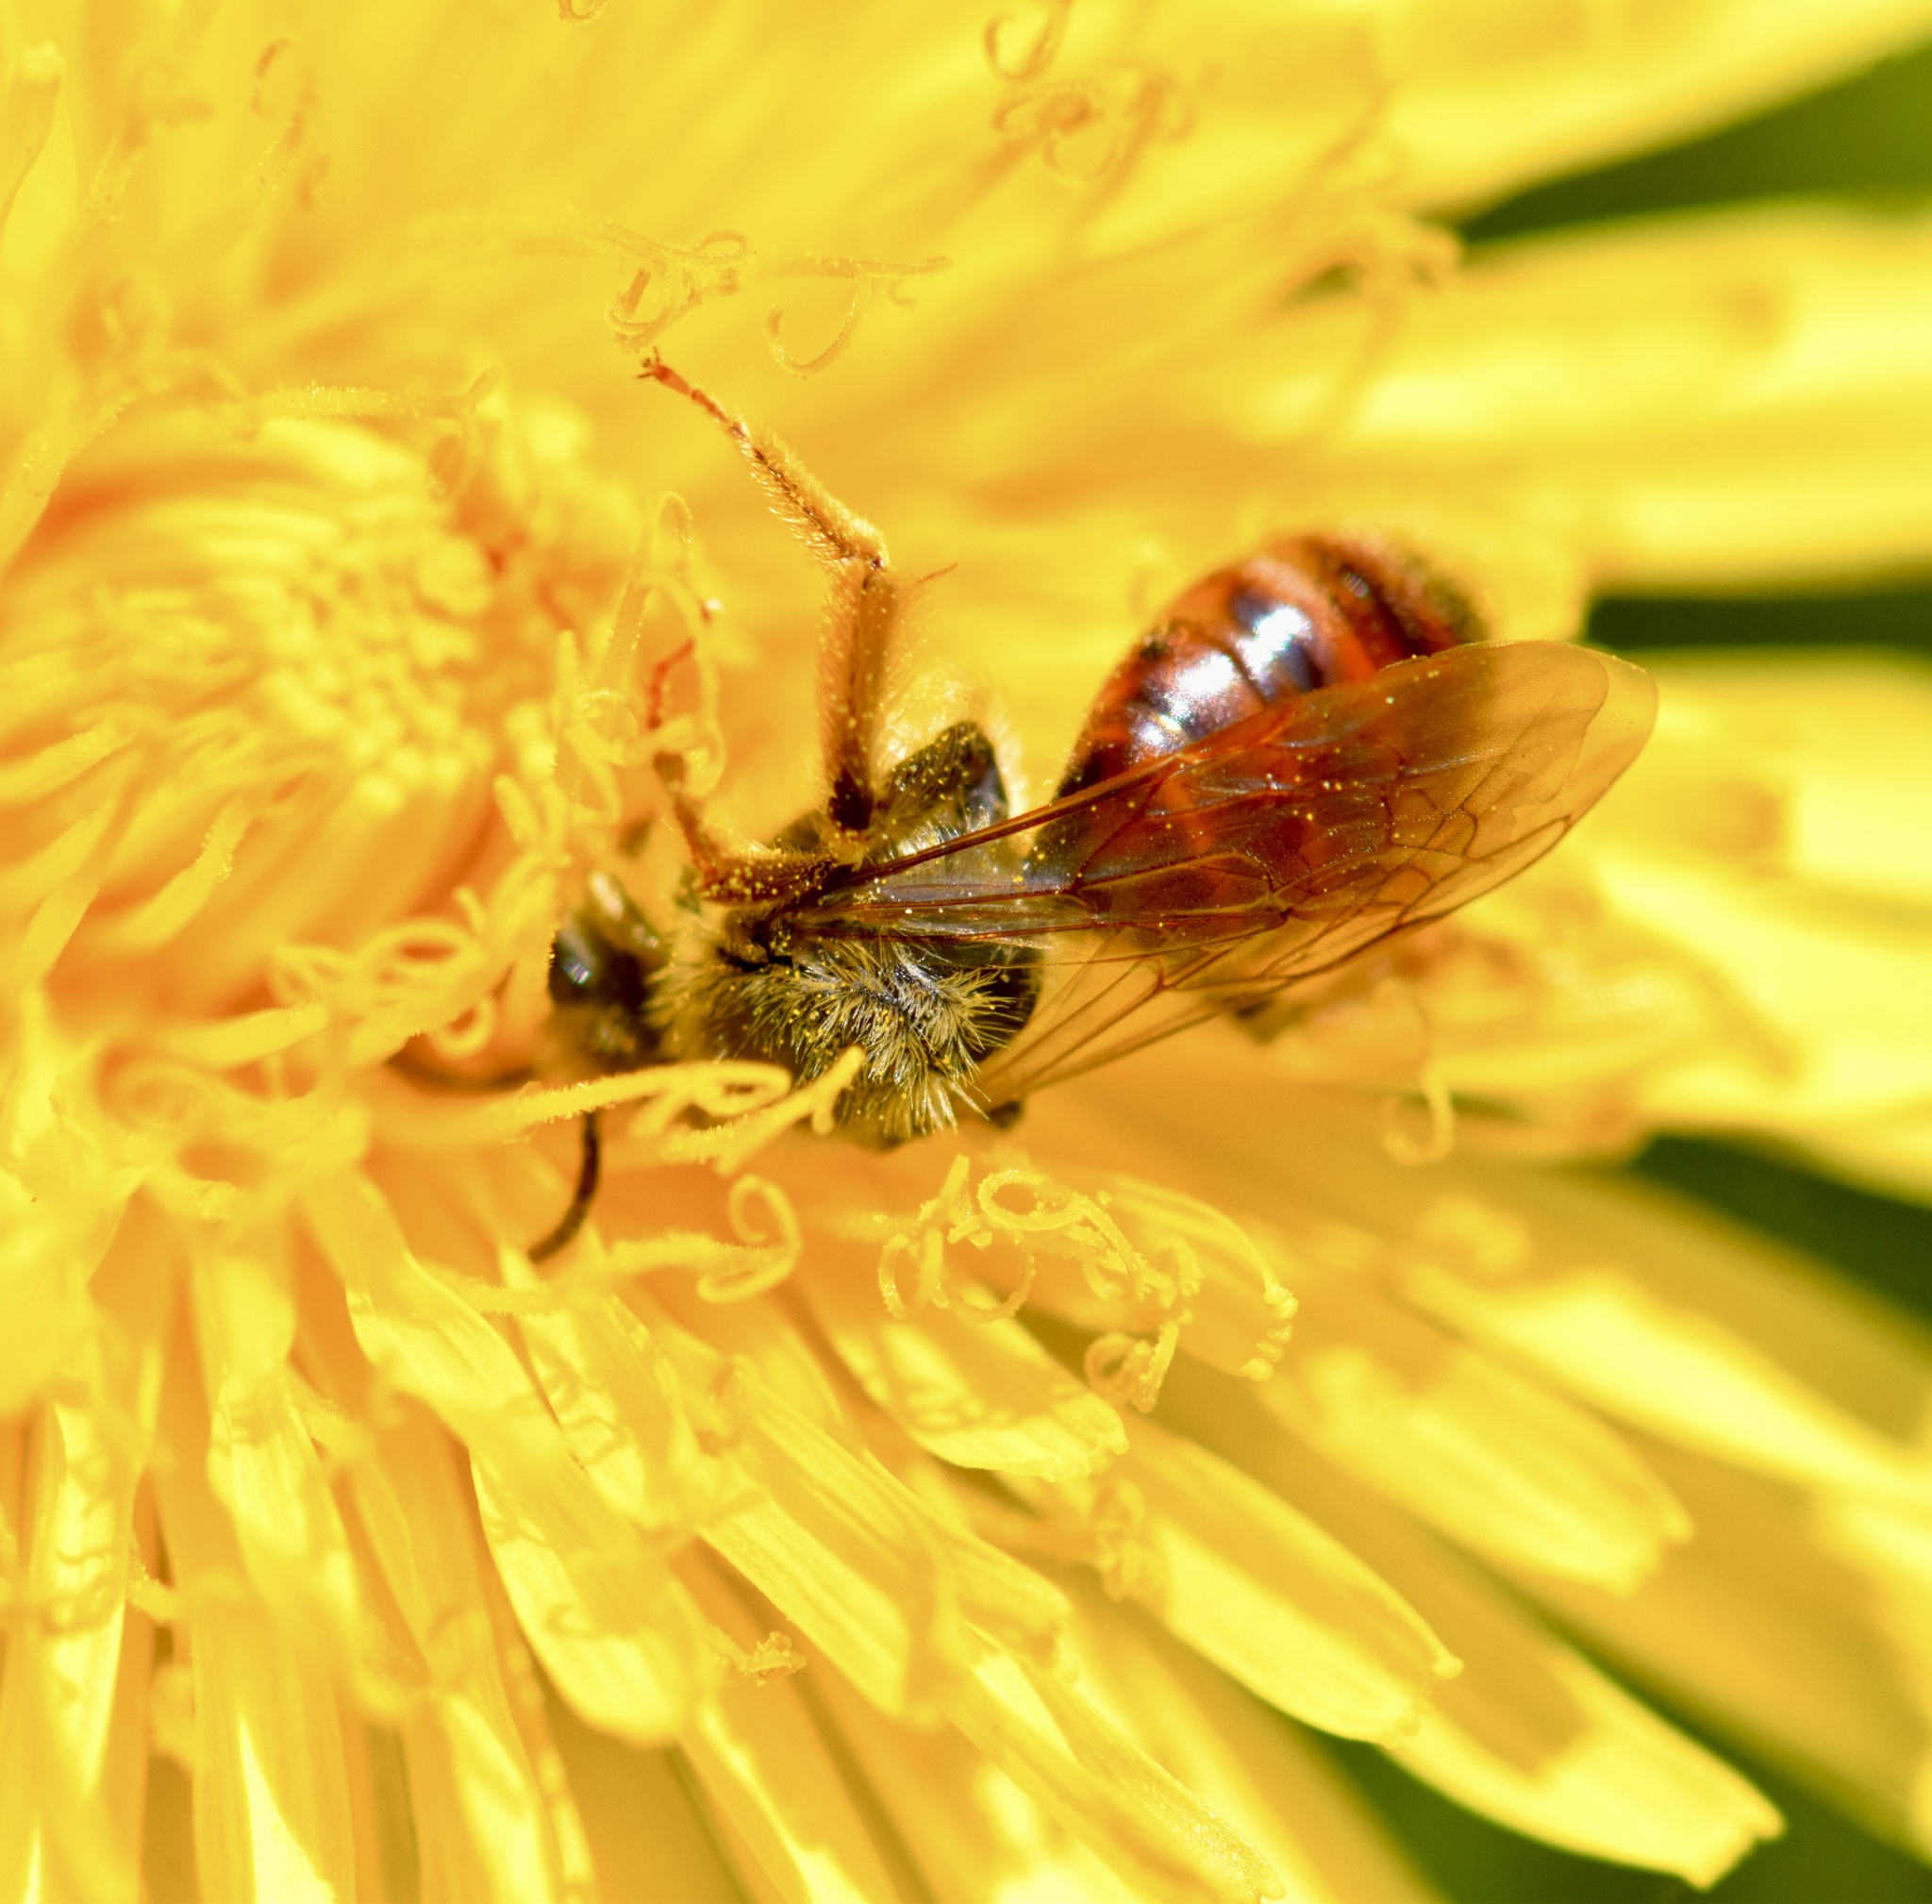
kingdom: Animalia
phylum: Arthropoda
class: Insecta
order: Hymenoptera
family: Andrenidae
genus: Andrena
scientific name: Andrena erythrogaster
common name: Red-tailed mining bee
